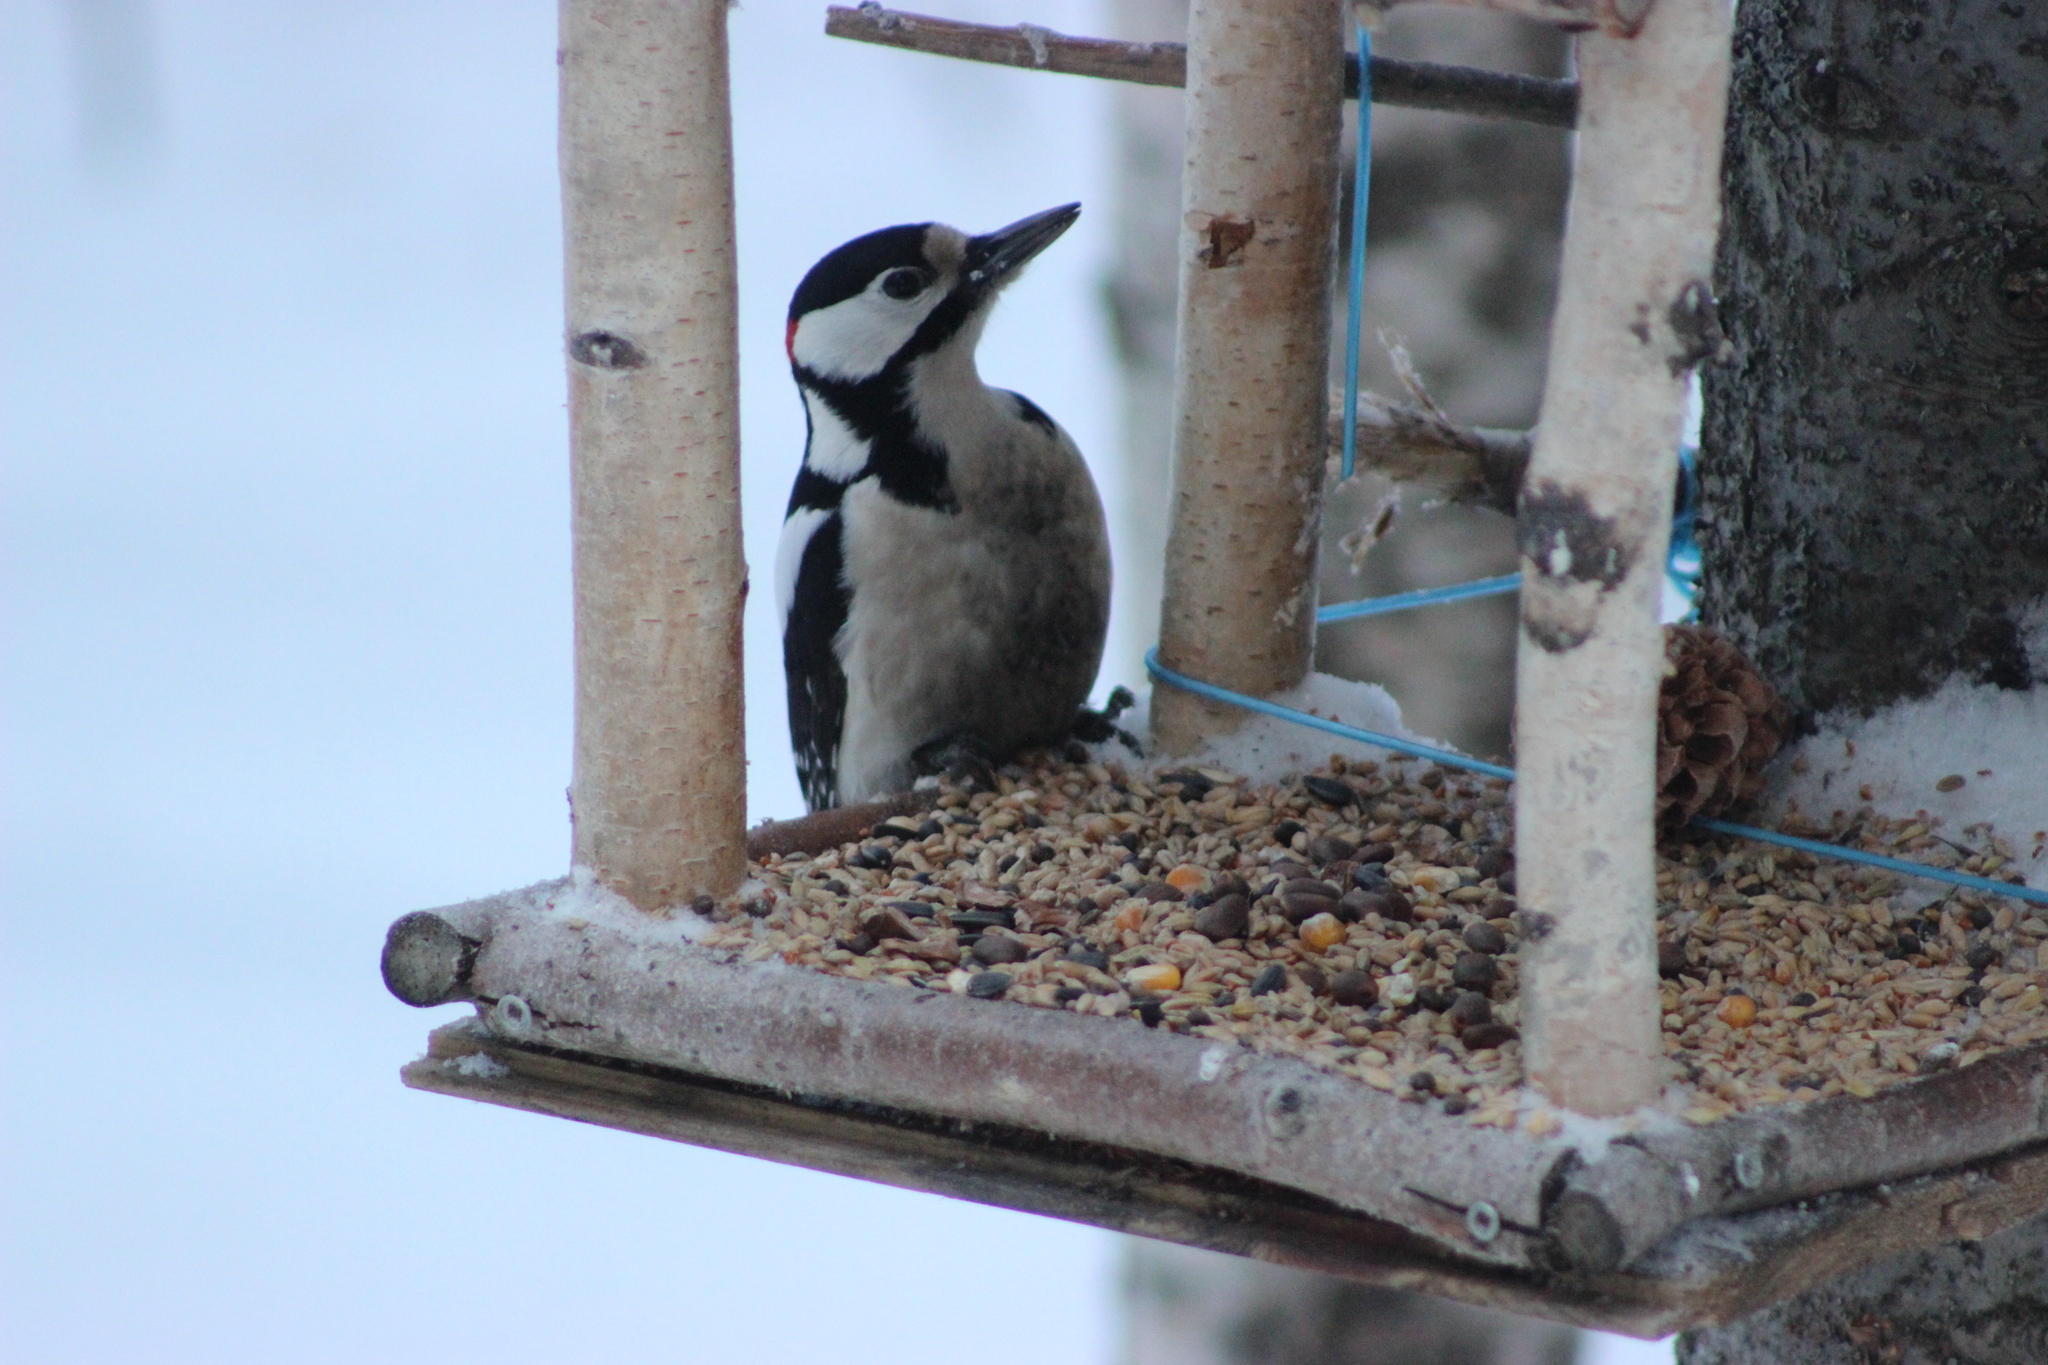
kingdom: Animalia
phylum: Chordata
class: Aves
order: Piciformes
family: Picidae
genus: Dendrocopos
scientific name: Dendrocopos major
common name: Great spotted woodpecker
